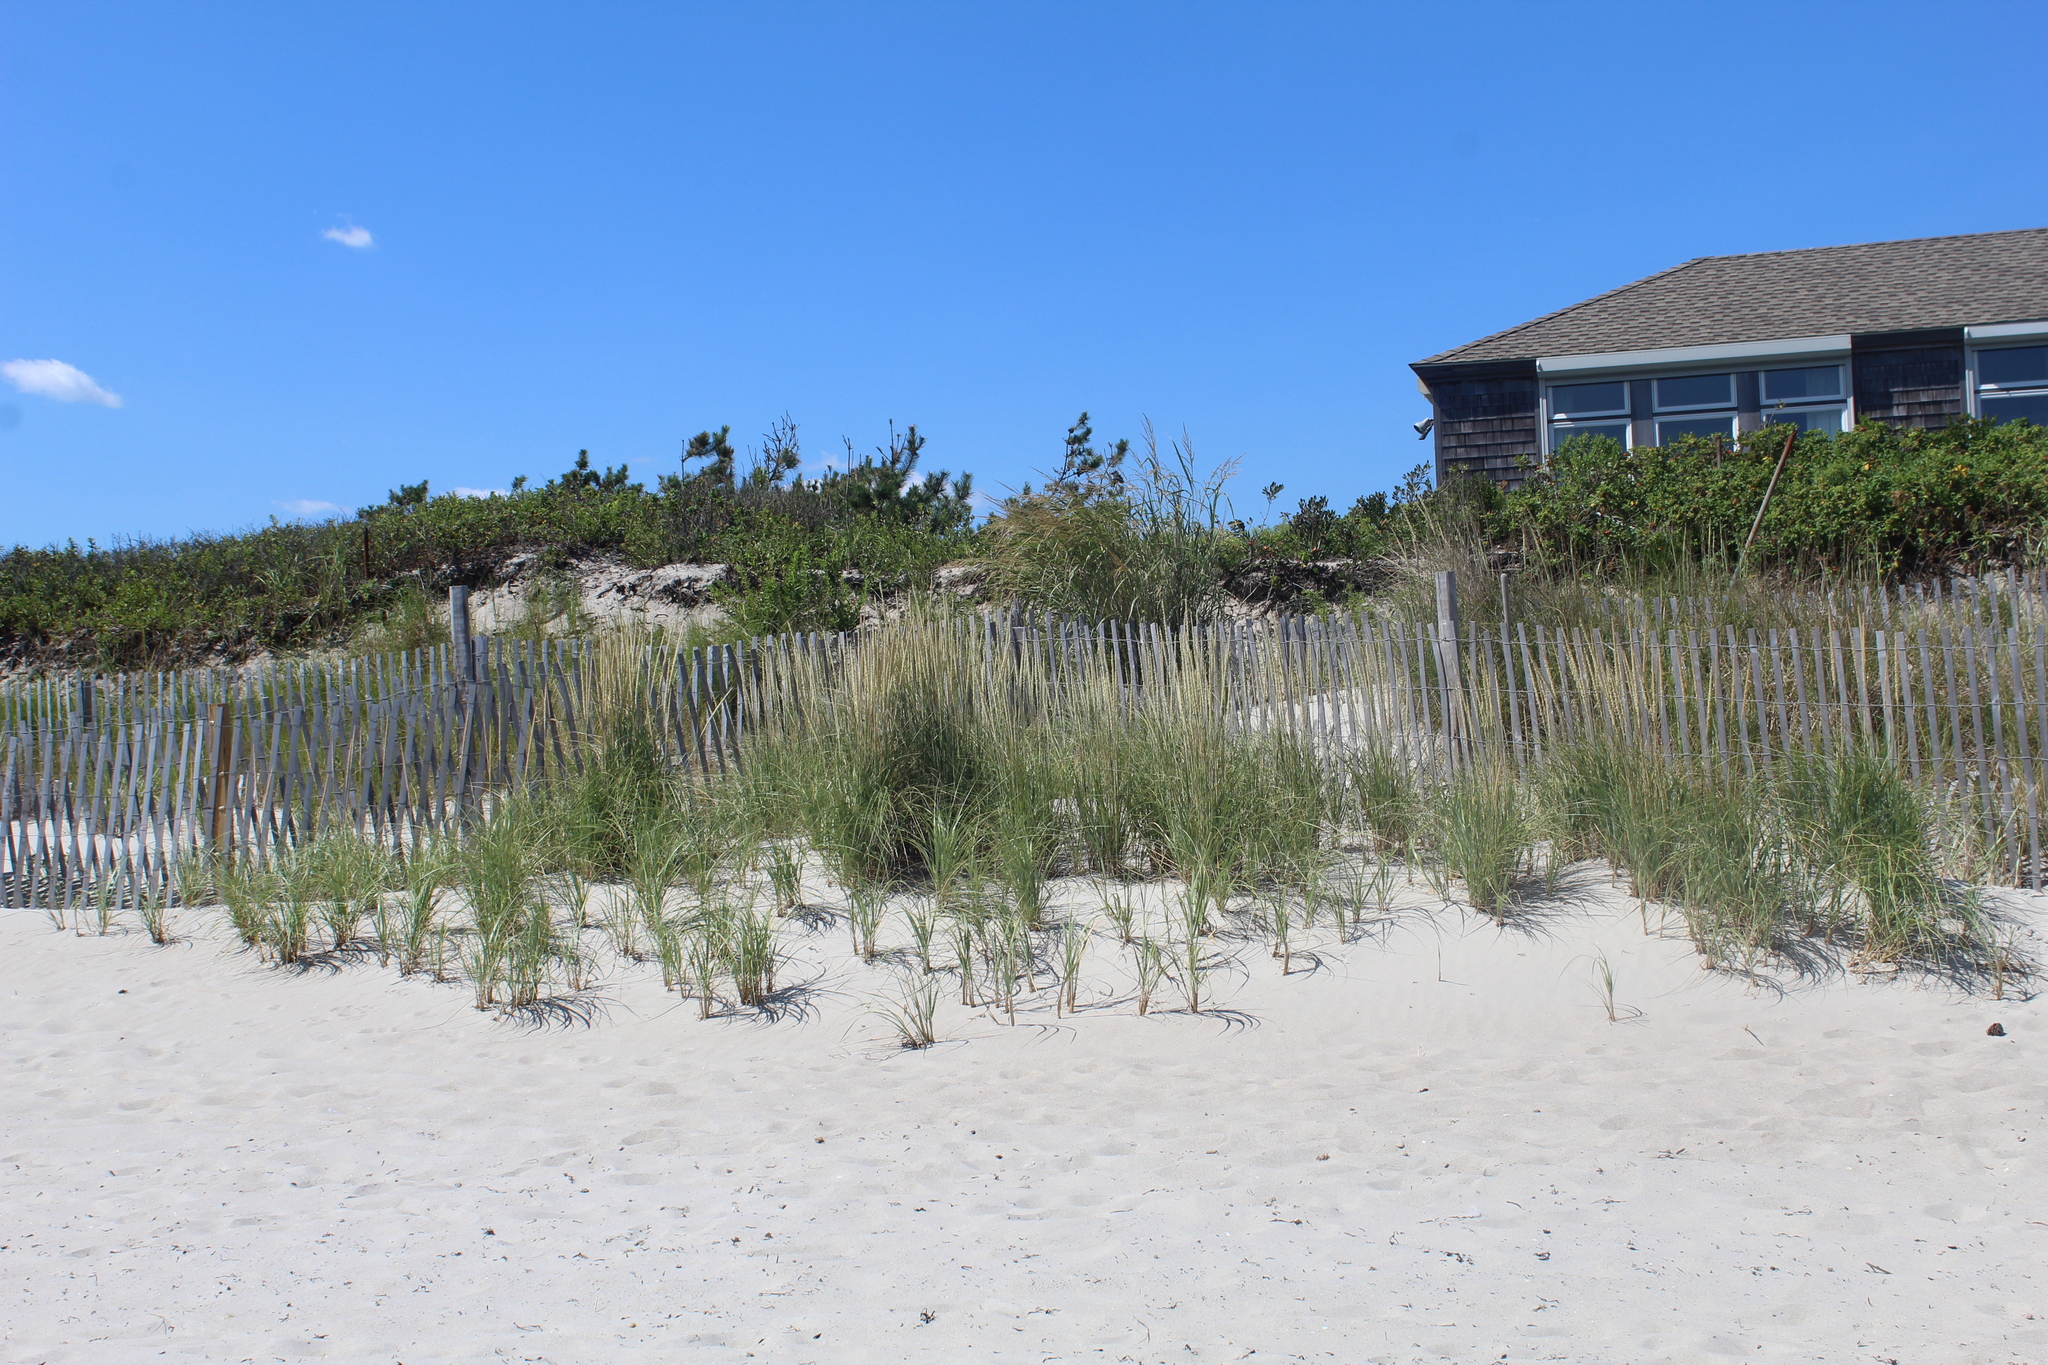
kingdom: Plantae
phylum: Tracheophyta
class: Liliopsida
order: Poales
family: Poaceae
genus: Calamagrostis
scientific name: Calamagrostis breviligulata
